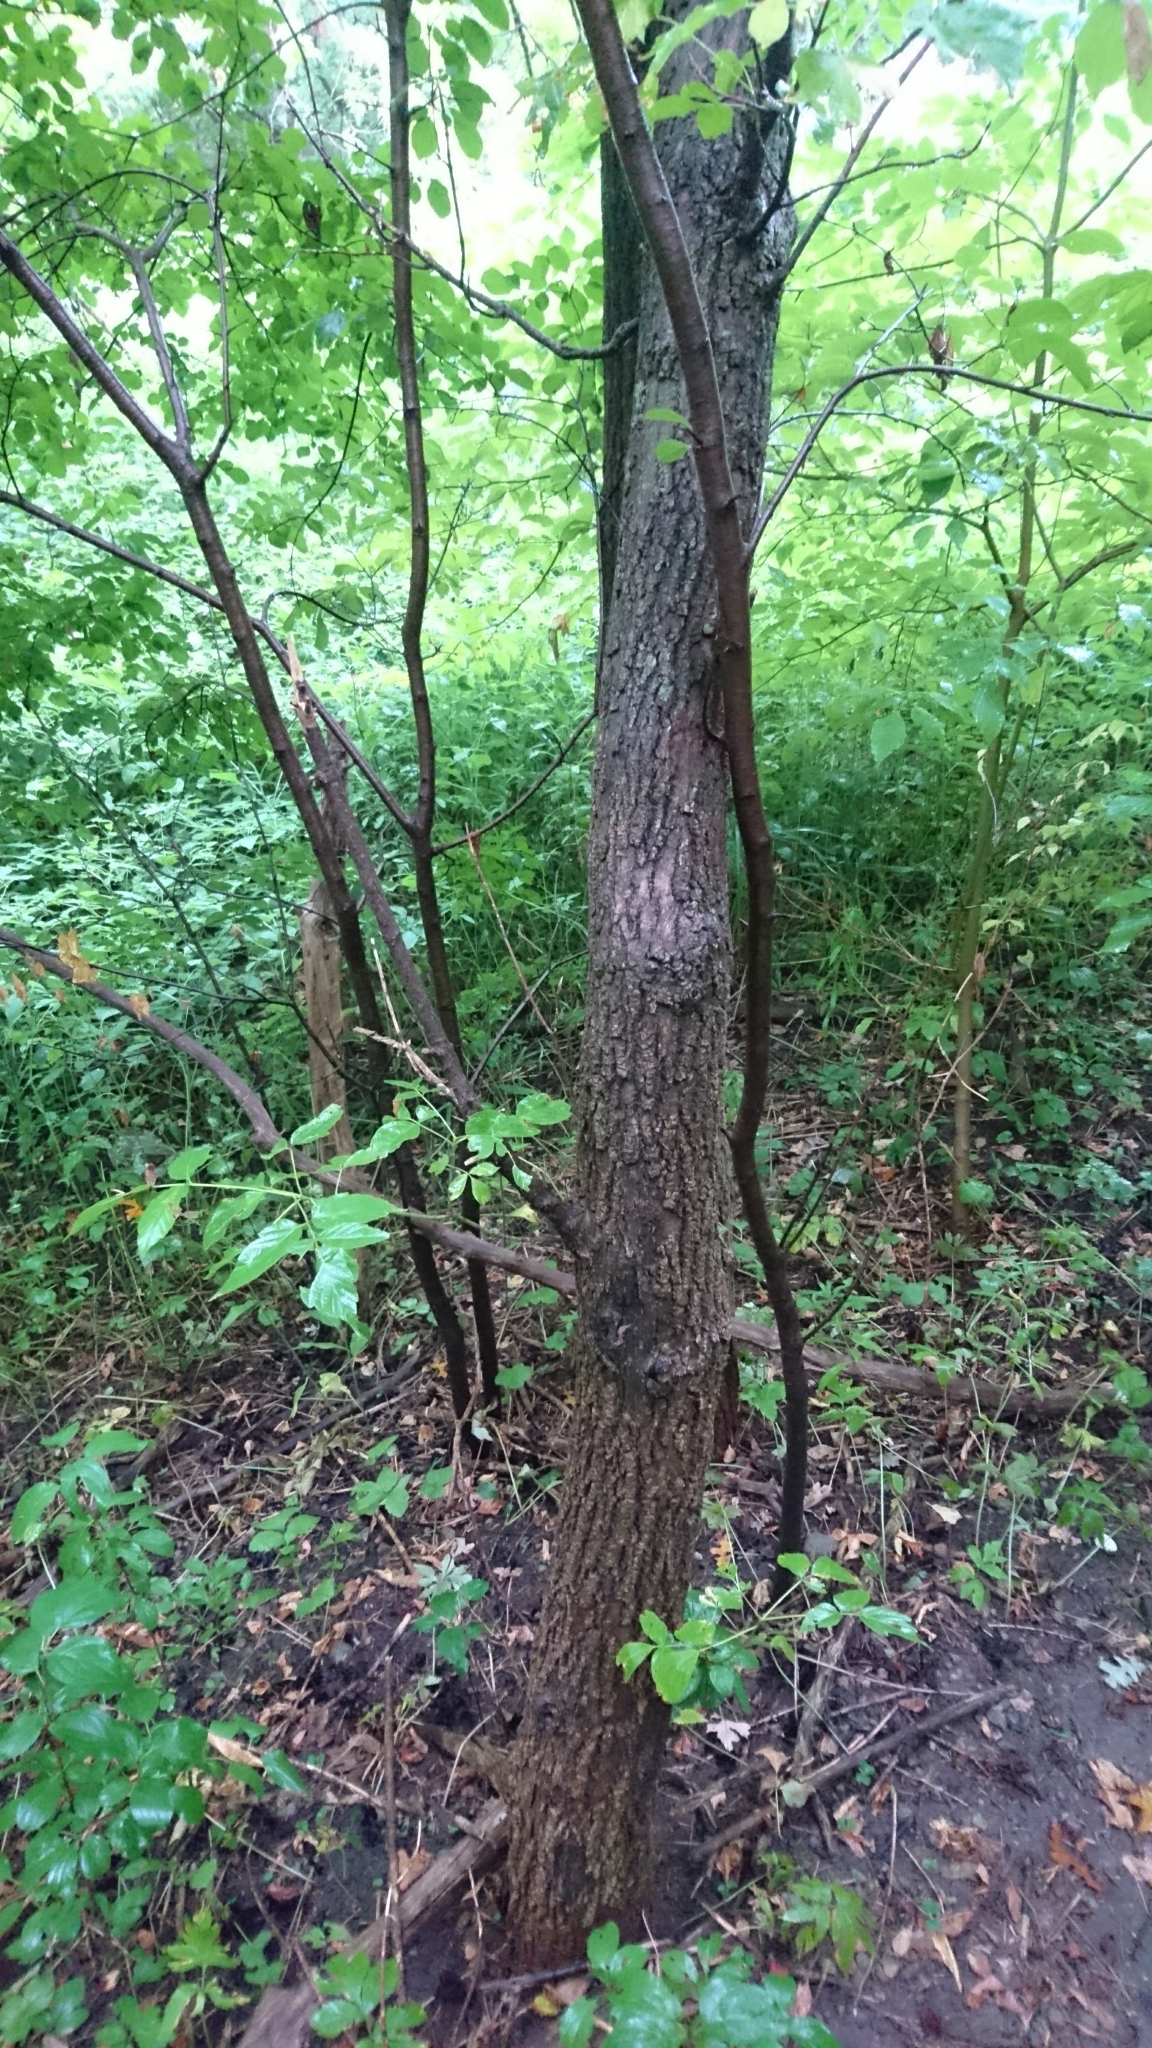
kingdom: Plantae
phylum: Tracheophyta
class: Magnoliopsida
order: Sapindales
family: Sapindaceae
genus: Acer
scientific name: Acer negundo
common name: Ashleaf maple
